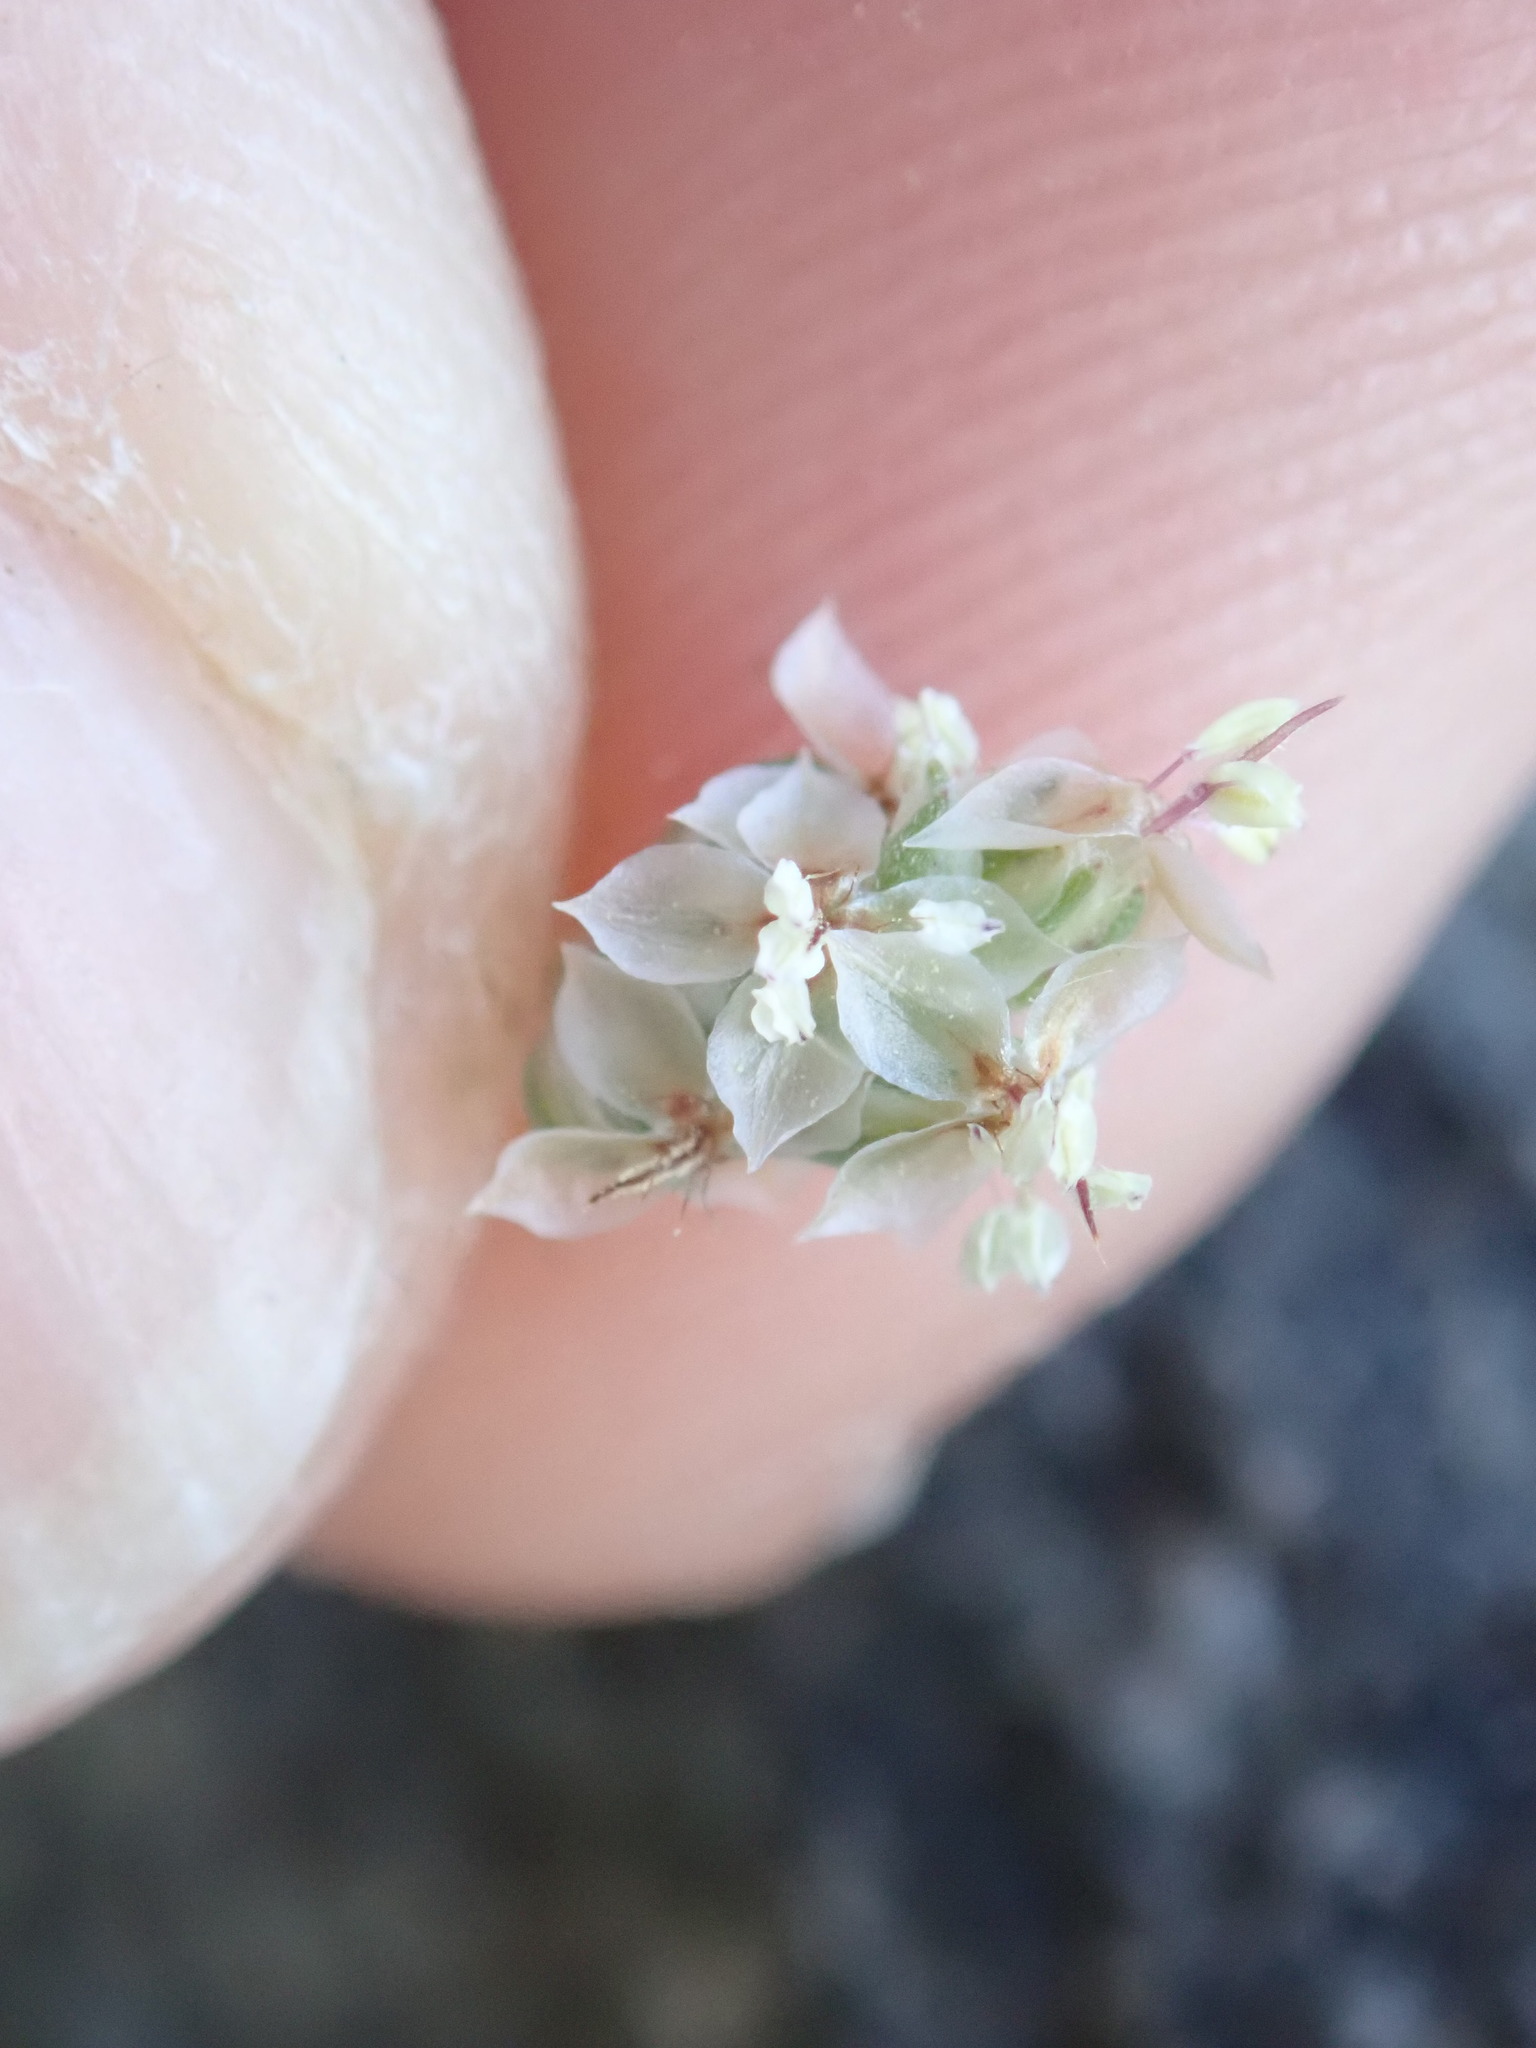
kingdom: Plantae
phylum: Tracheophyta
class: Magnoliopsida
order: Lamiales
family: Plantaginaceae
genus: Plantago
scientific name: Plantago ovata
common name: Blond plantain
